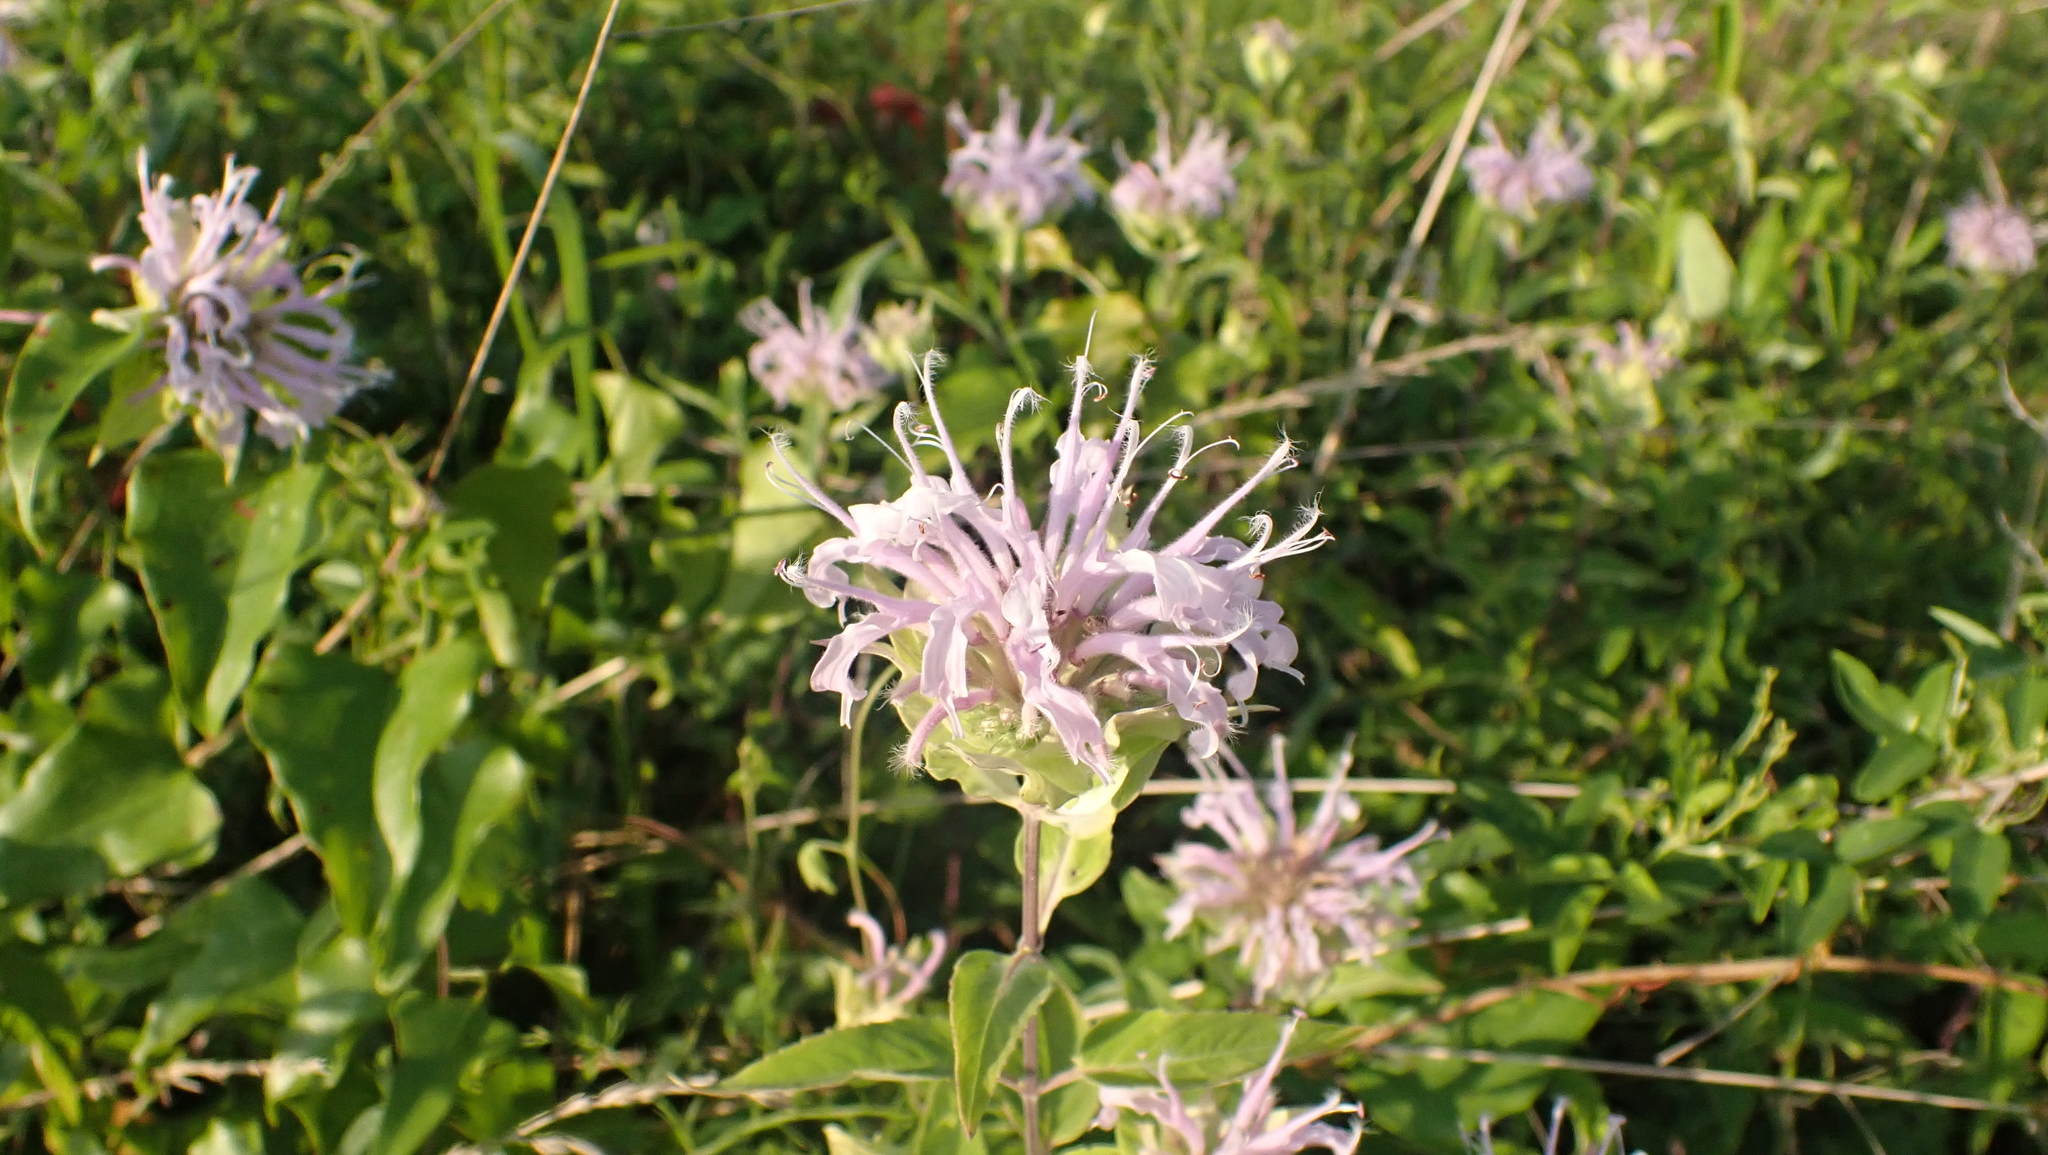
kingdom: Plantae
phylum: Tracheophyta
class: Magnoliopsida
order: Lamiales
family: Lamiaceae
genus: Monarda
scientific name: Monarda fistulosa
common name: Purple beebalm
